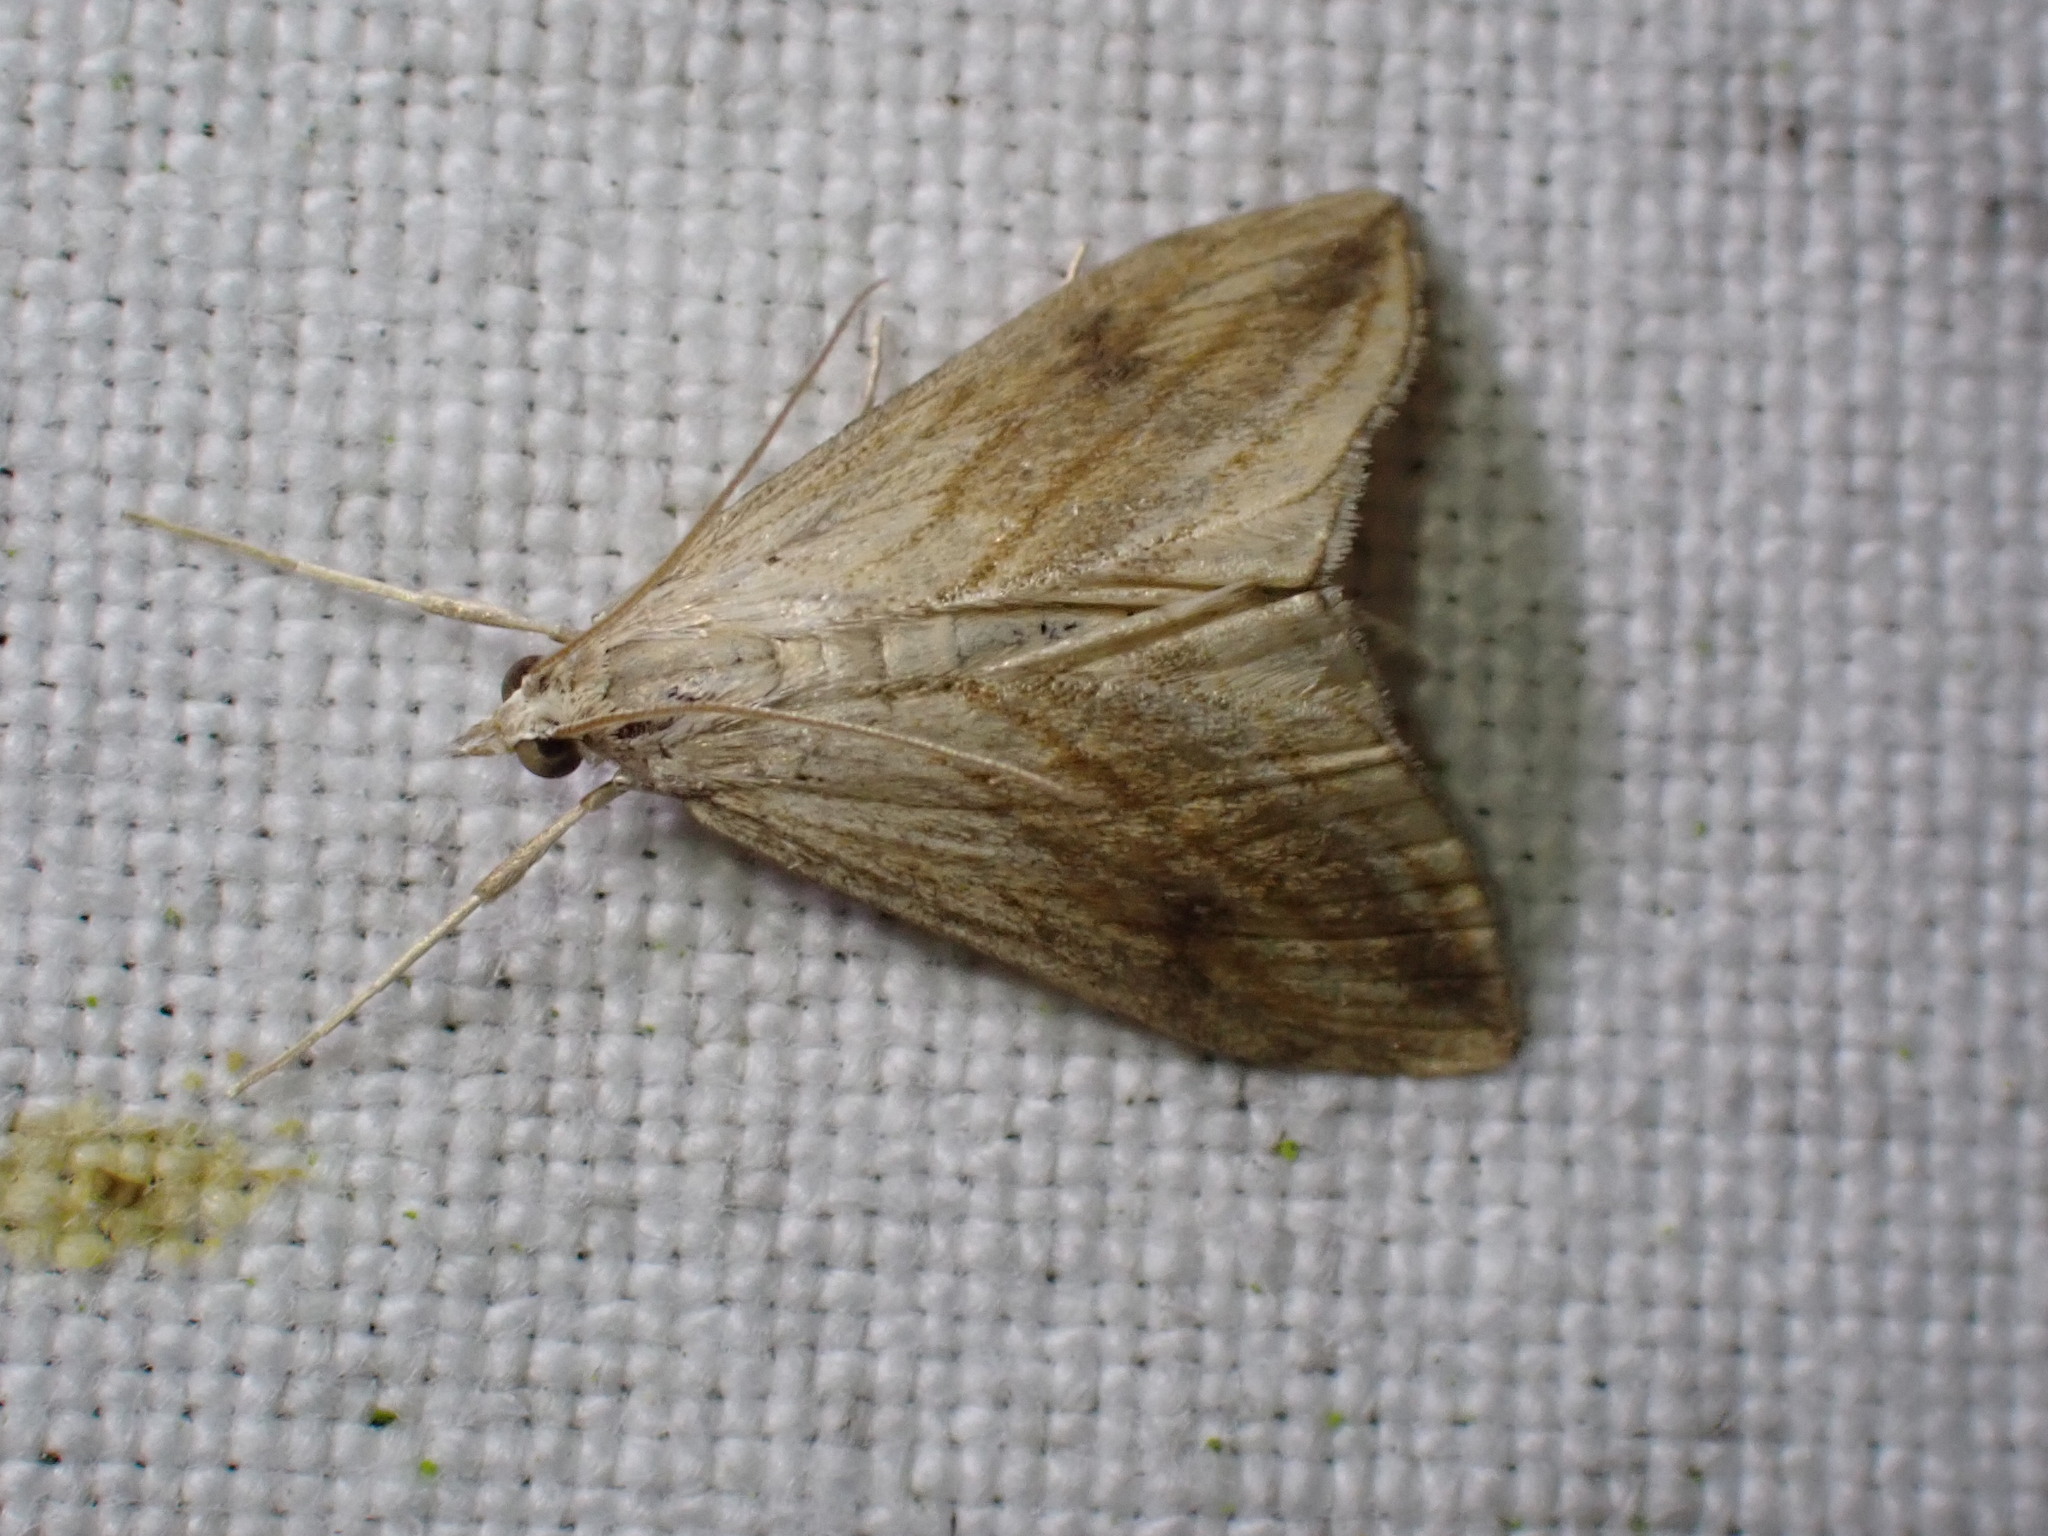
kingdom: Animalia
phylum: Arthropoda
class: Insecta
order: Lepidoptera
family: Crambidae
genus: Evergestis
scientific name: Evergestis forficalis
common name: Garden pebble
